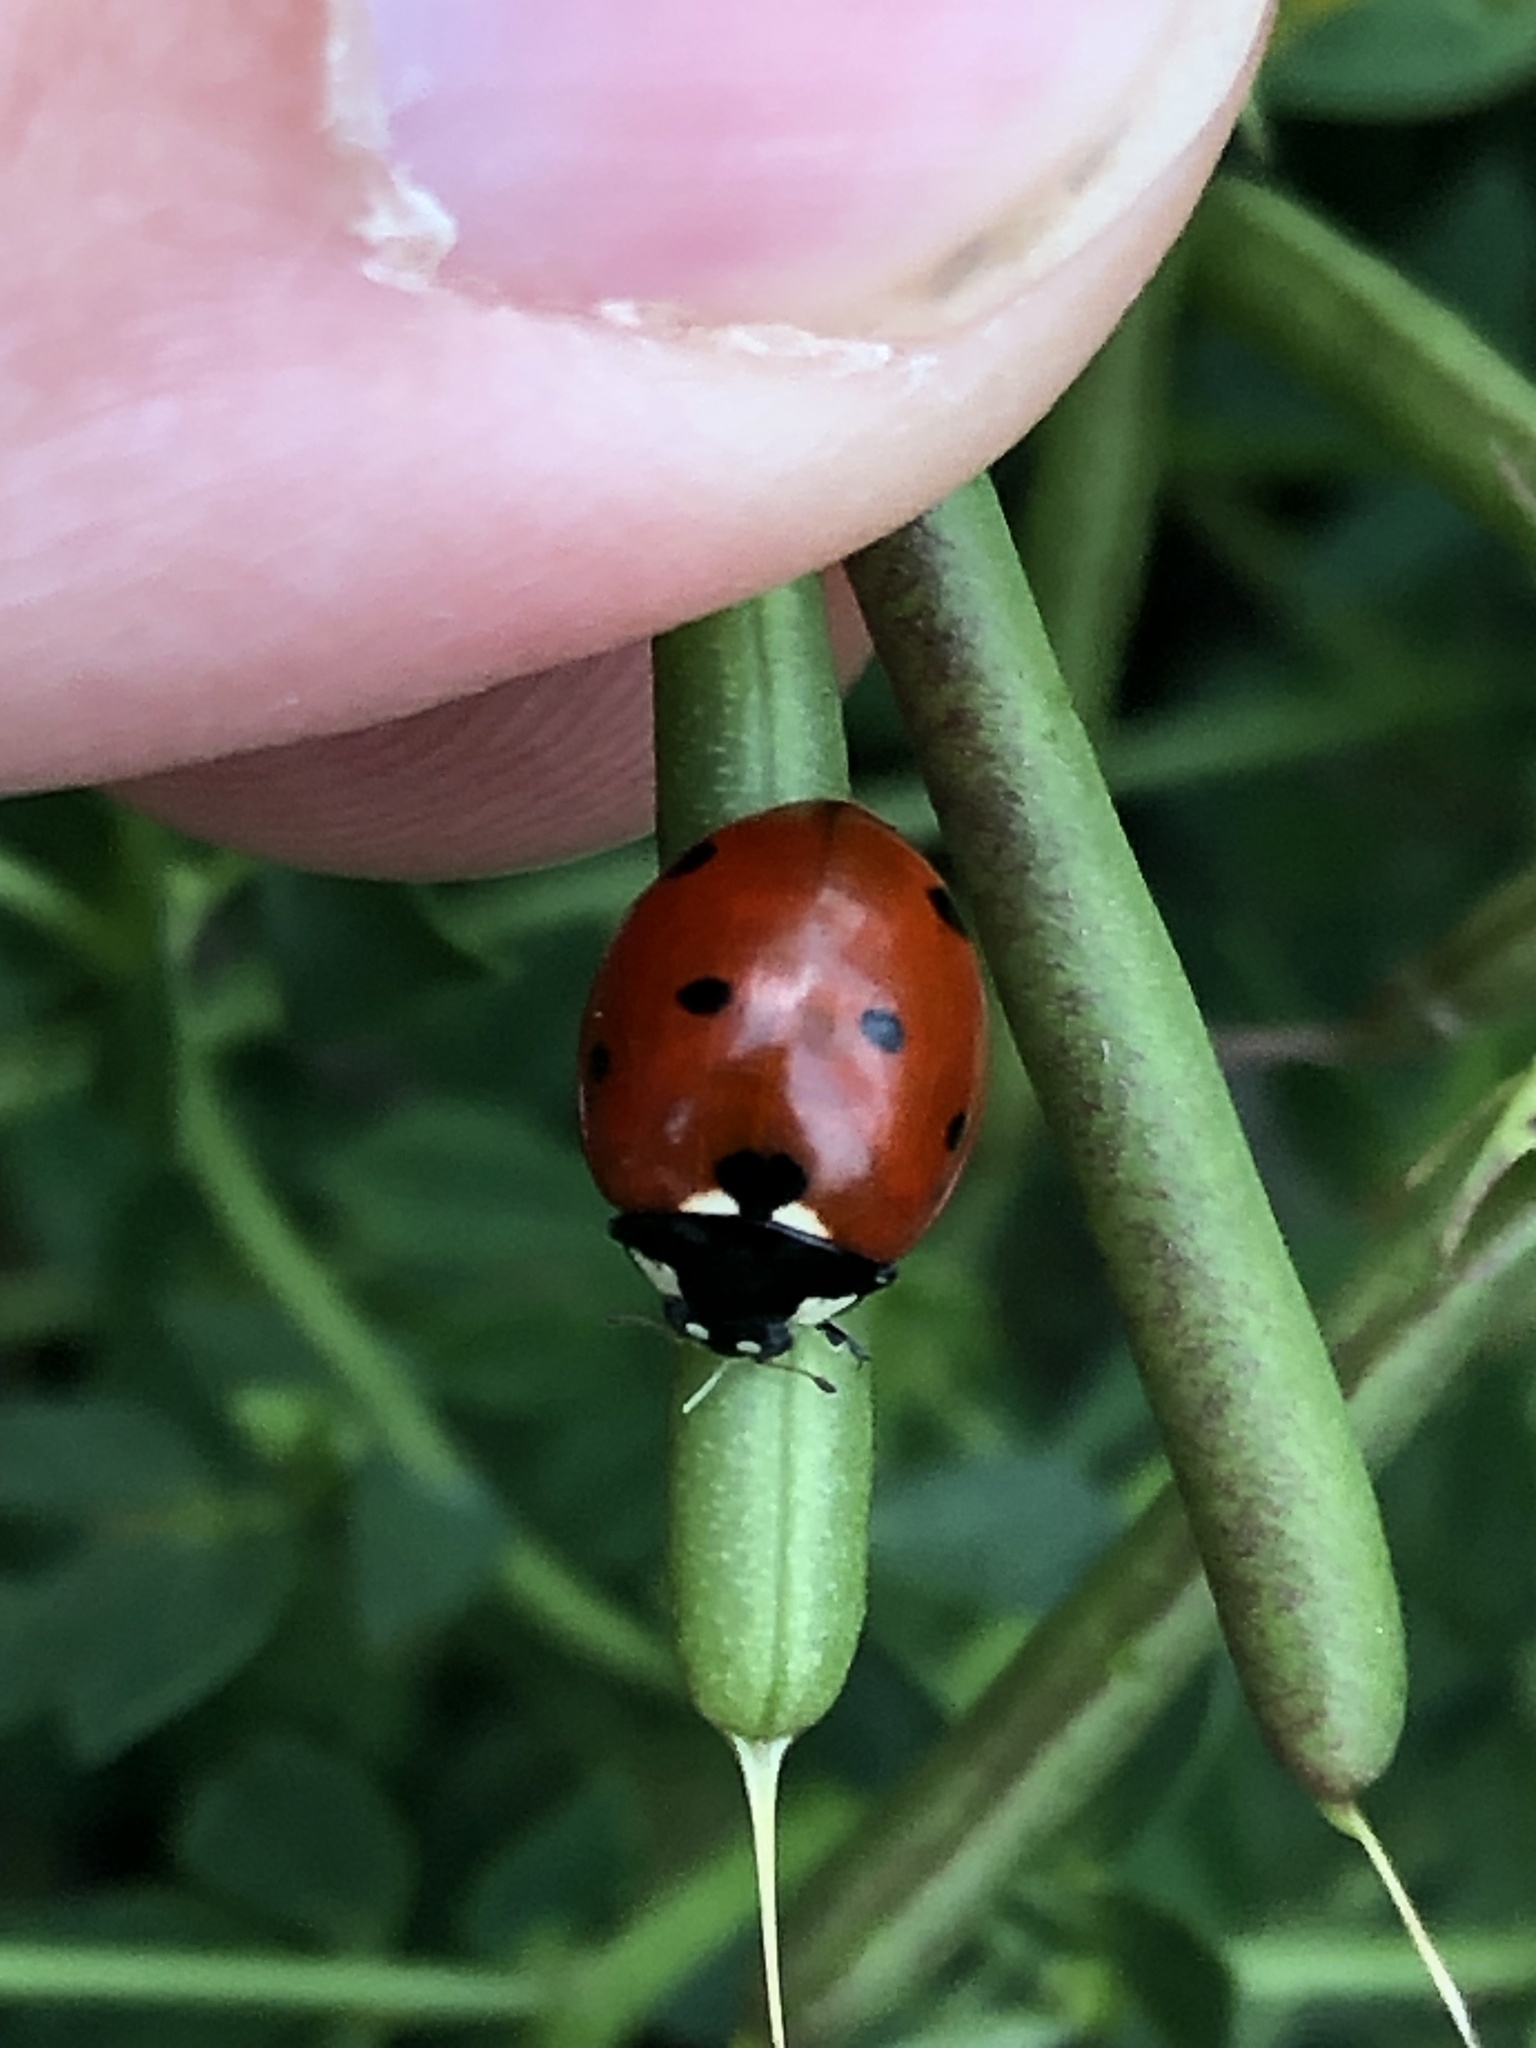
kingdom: Animalia
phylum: Arthropoda
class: Insecta
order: Coleoptera
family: Coccinellidae
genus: Coccinella
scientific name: Coccinella septempunctata
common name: Sevenspotted lady beetle
